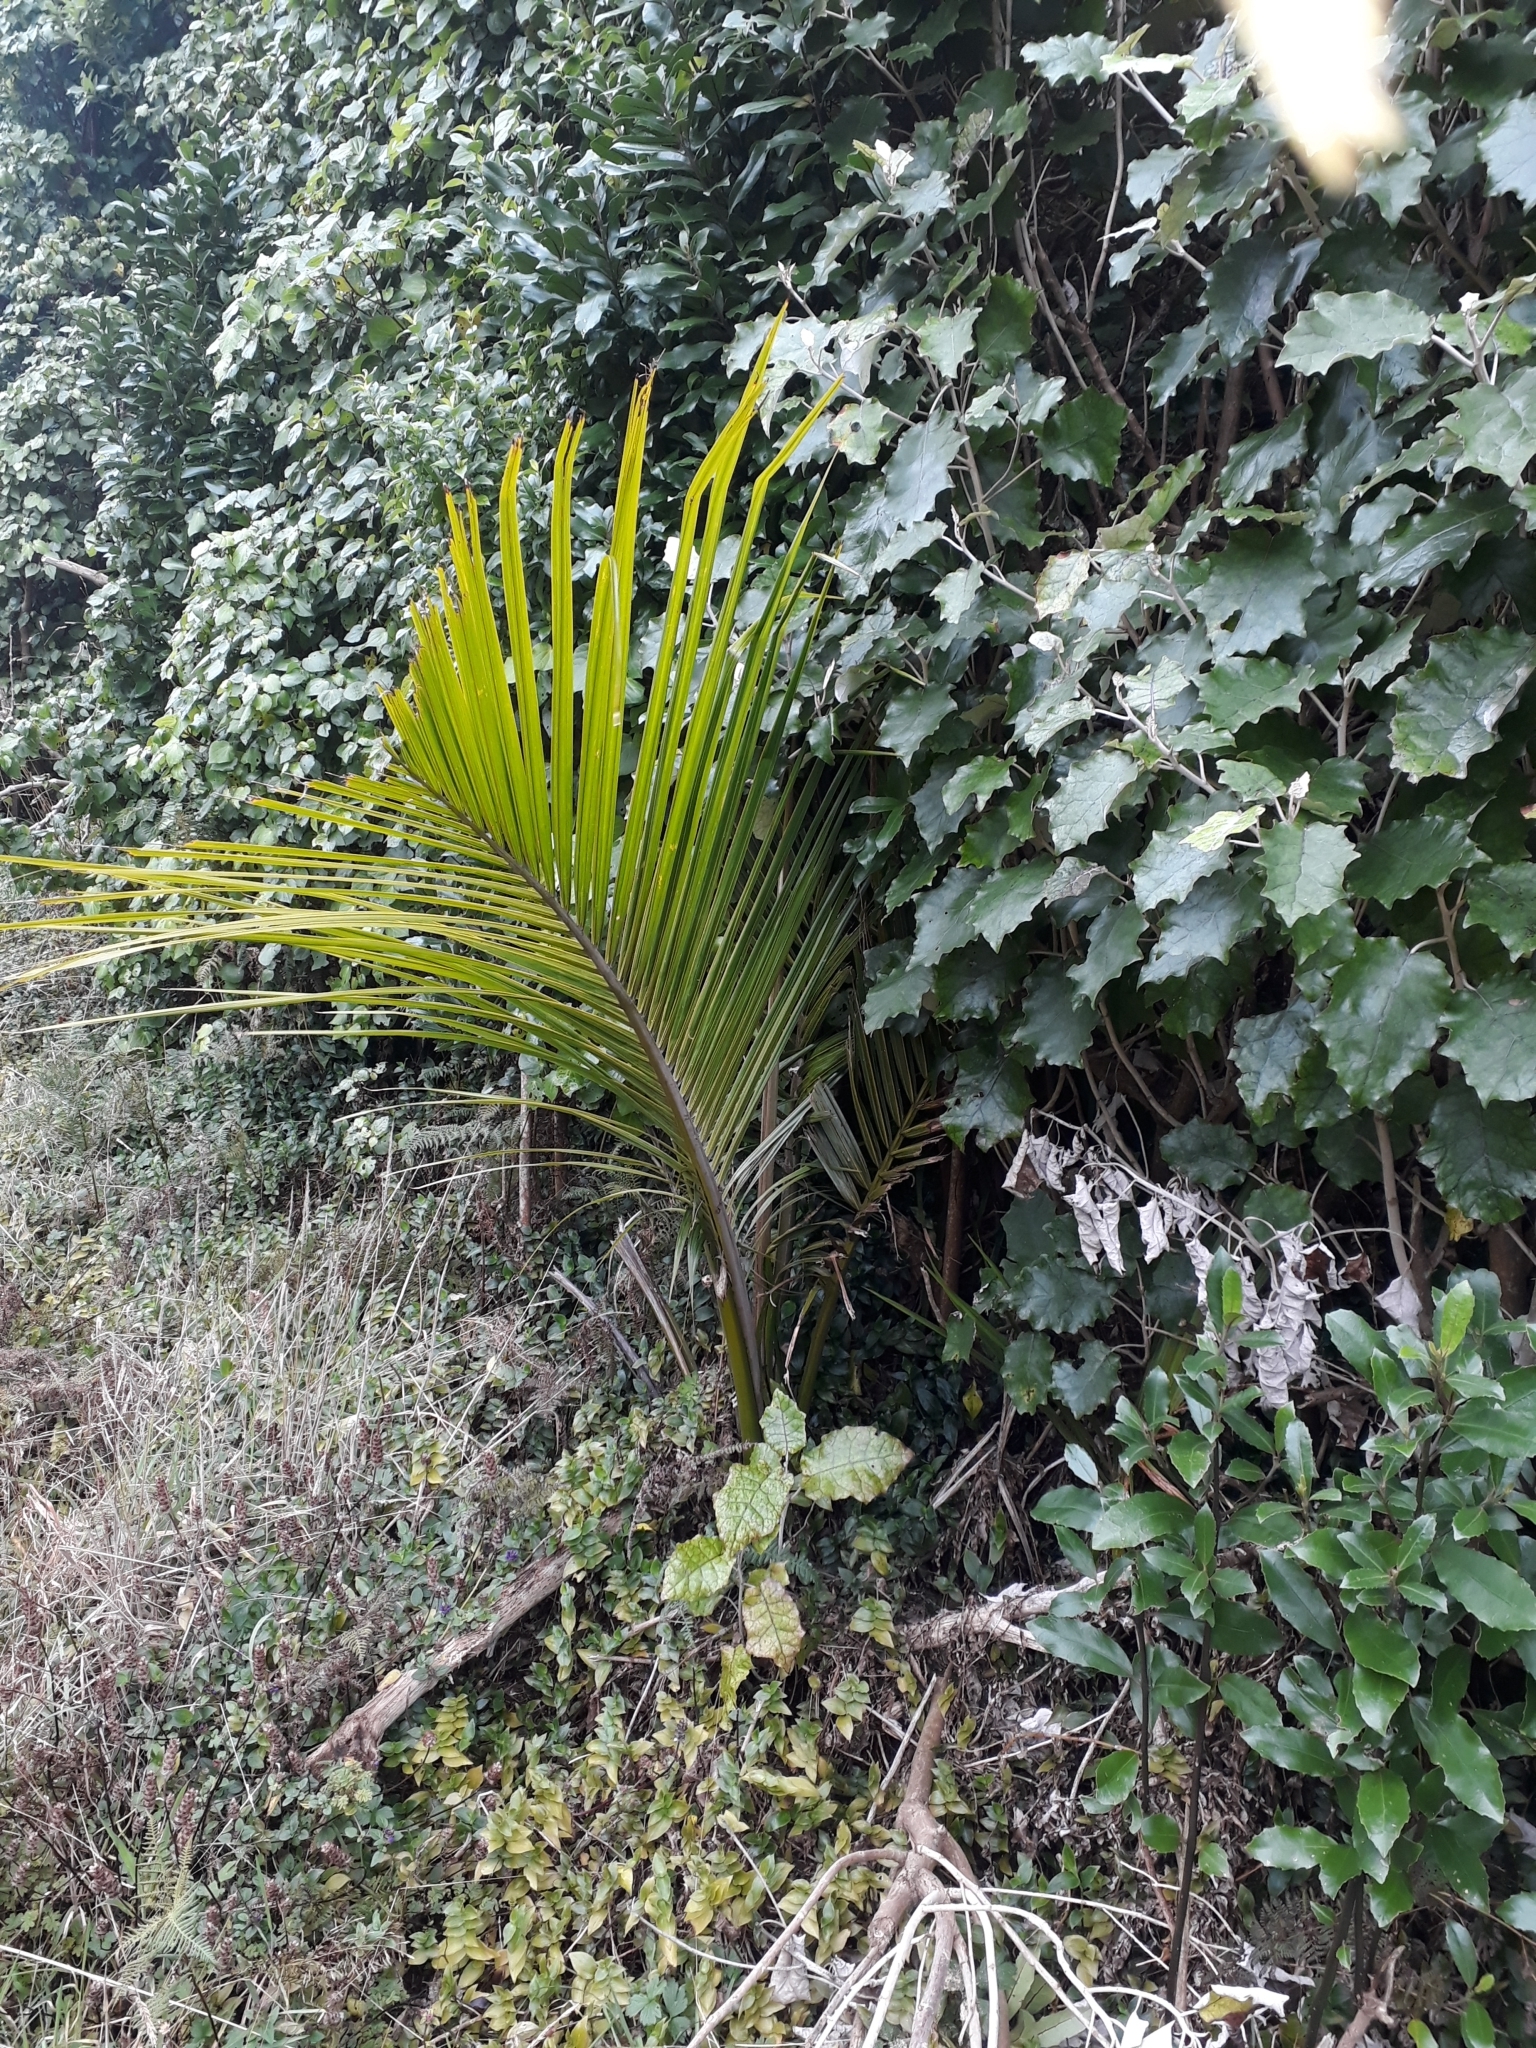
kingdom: Plantae
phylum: Tracheophyta
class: Liliopsida
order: Arecales
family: Arecaceae
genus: Rhopalostylis
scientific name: Rhopalostylis sapida
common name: Feather-duster palm
